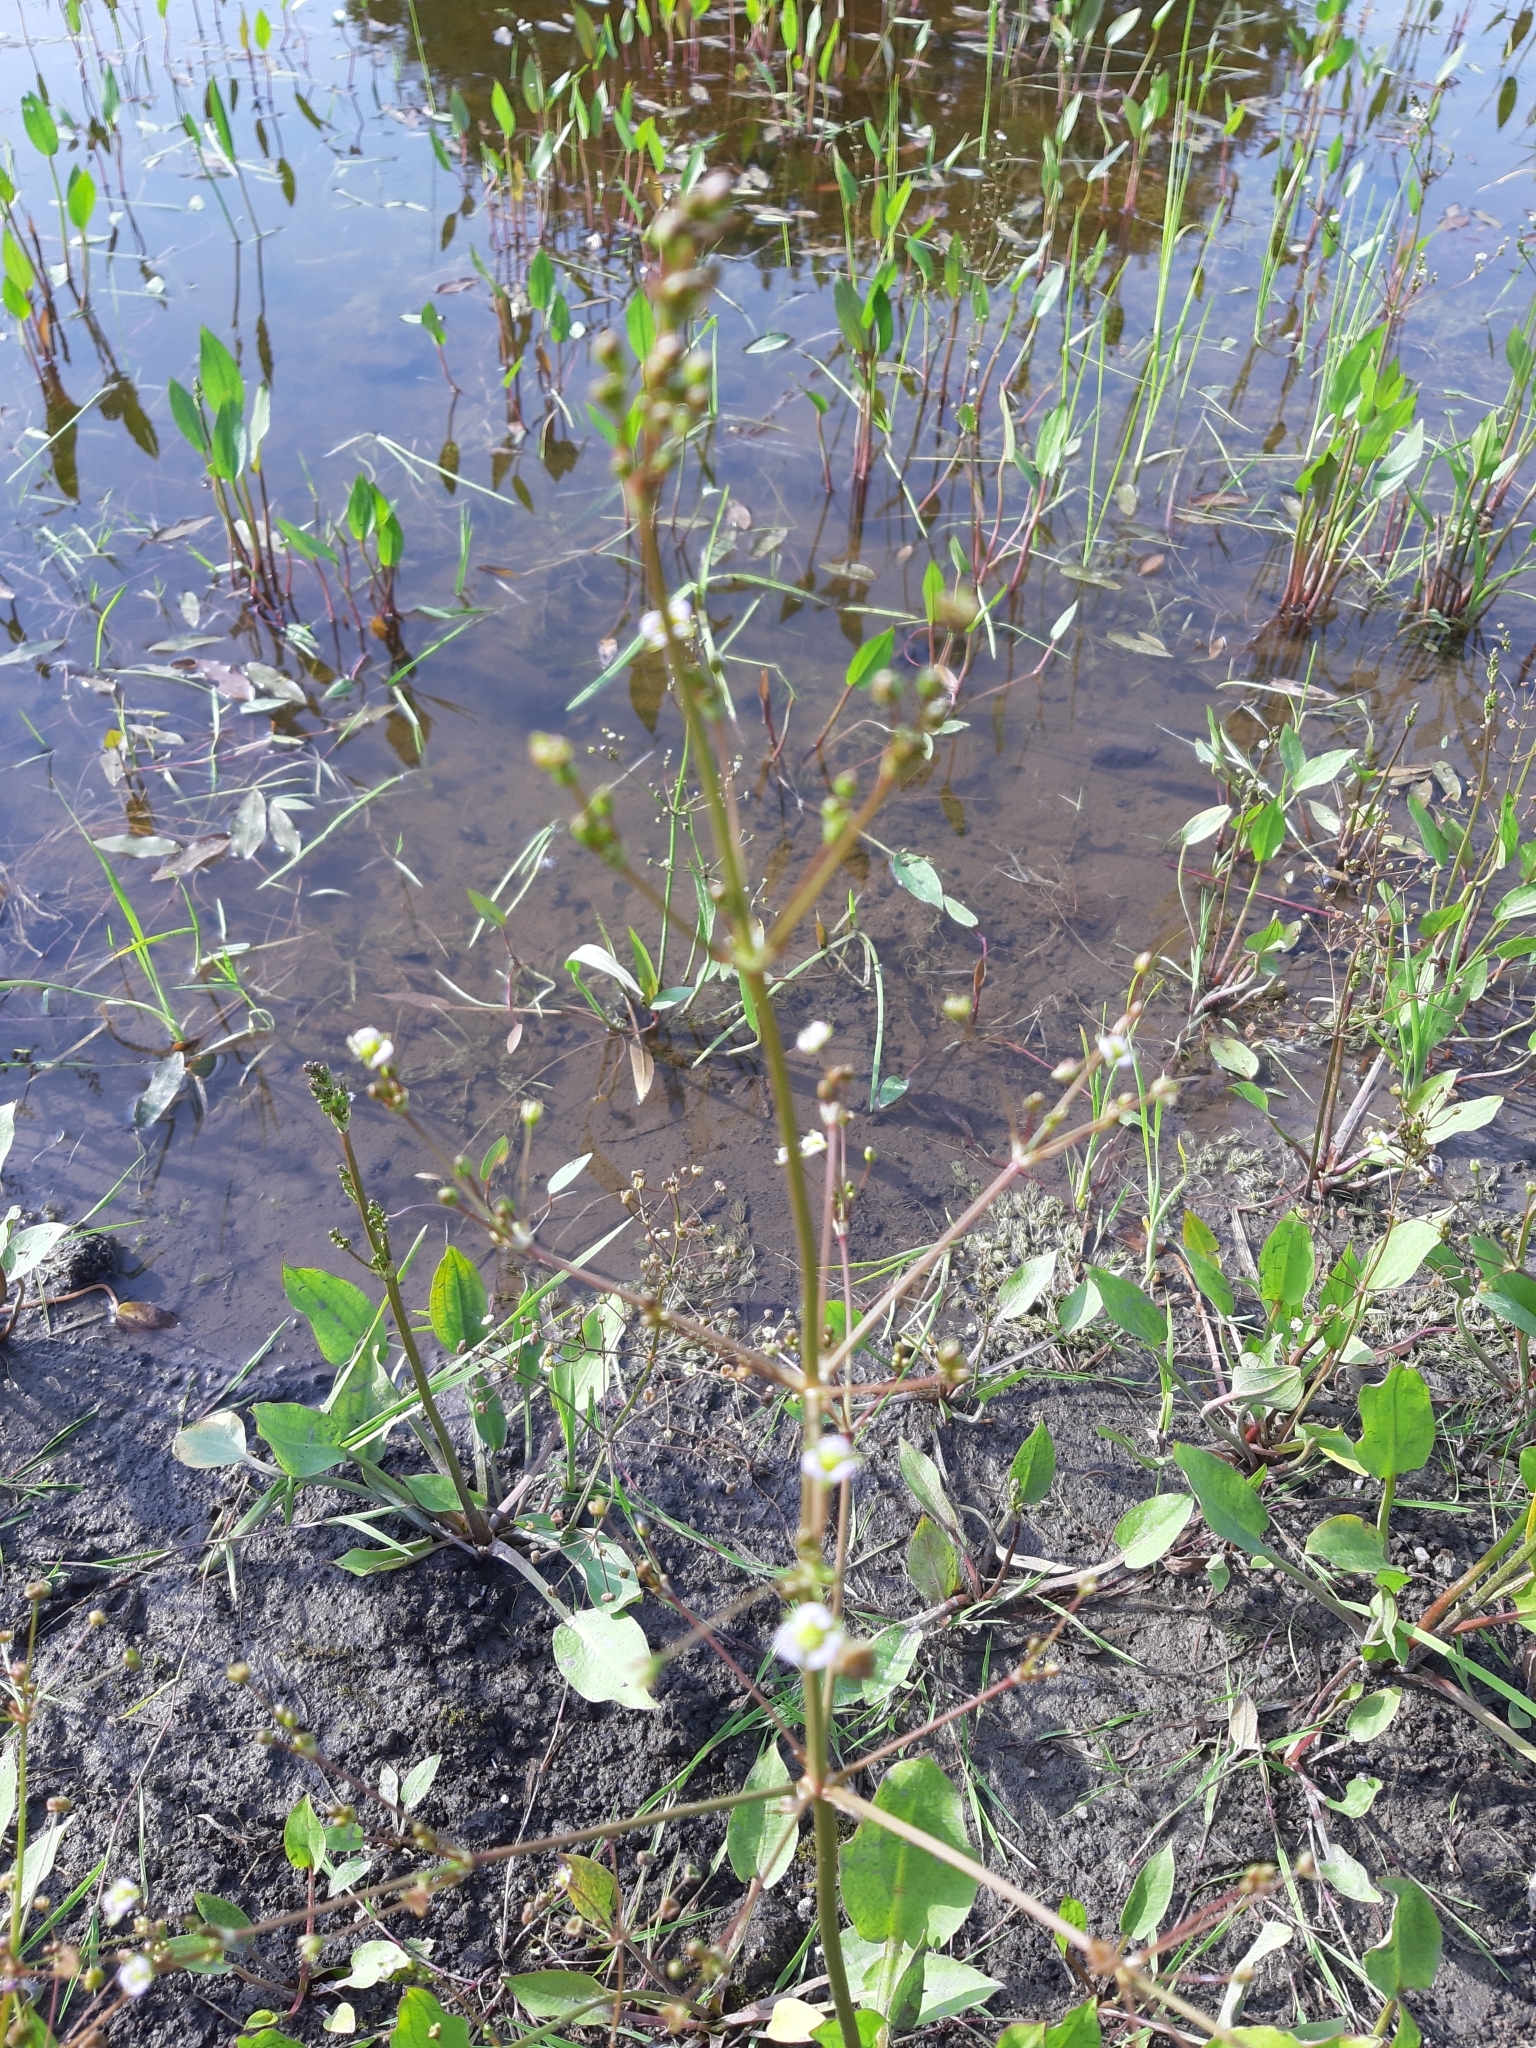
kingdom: Plantae
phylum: Tracheophyta
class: Liliopsida
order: Alismatales
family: Alismataceae
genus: Alisma
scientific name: Alisma plantago-aquatica
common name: Water-plantain
